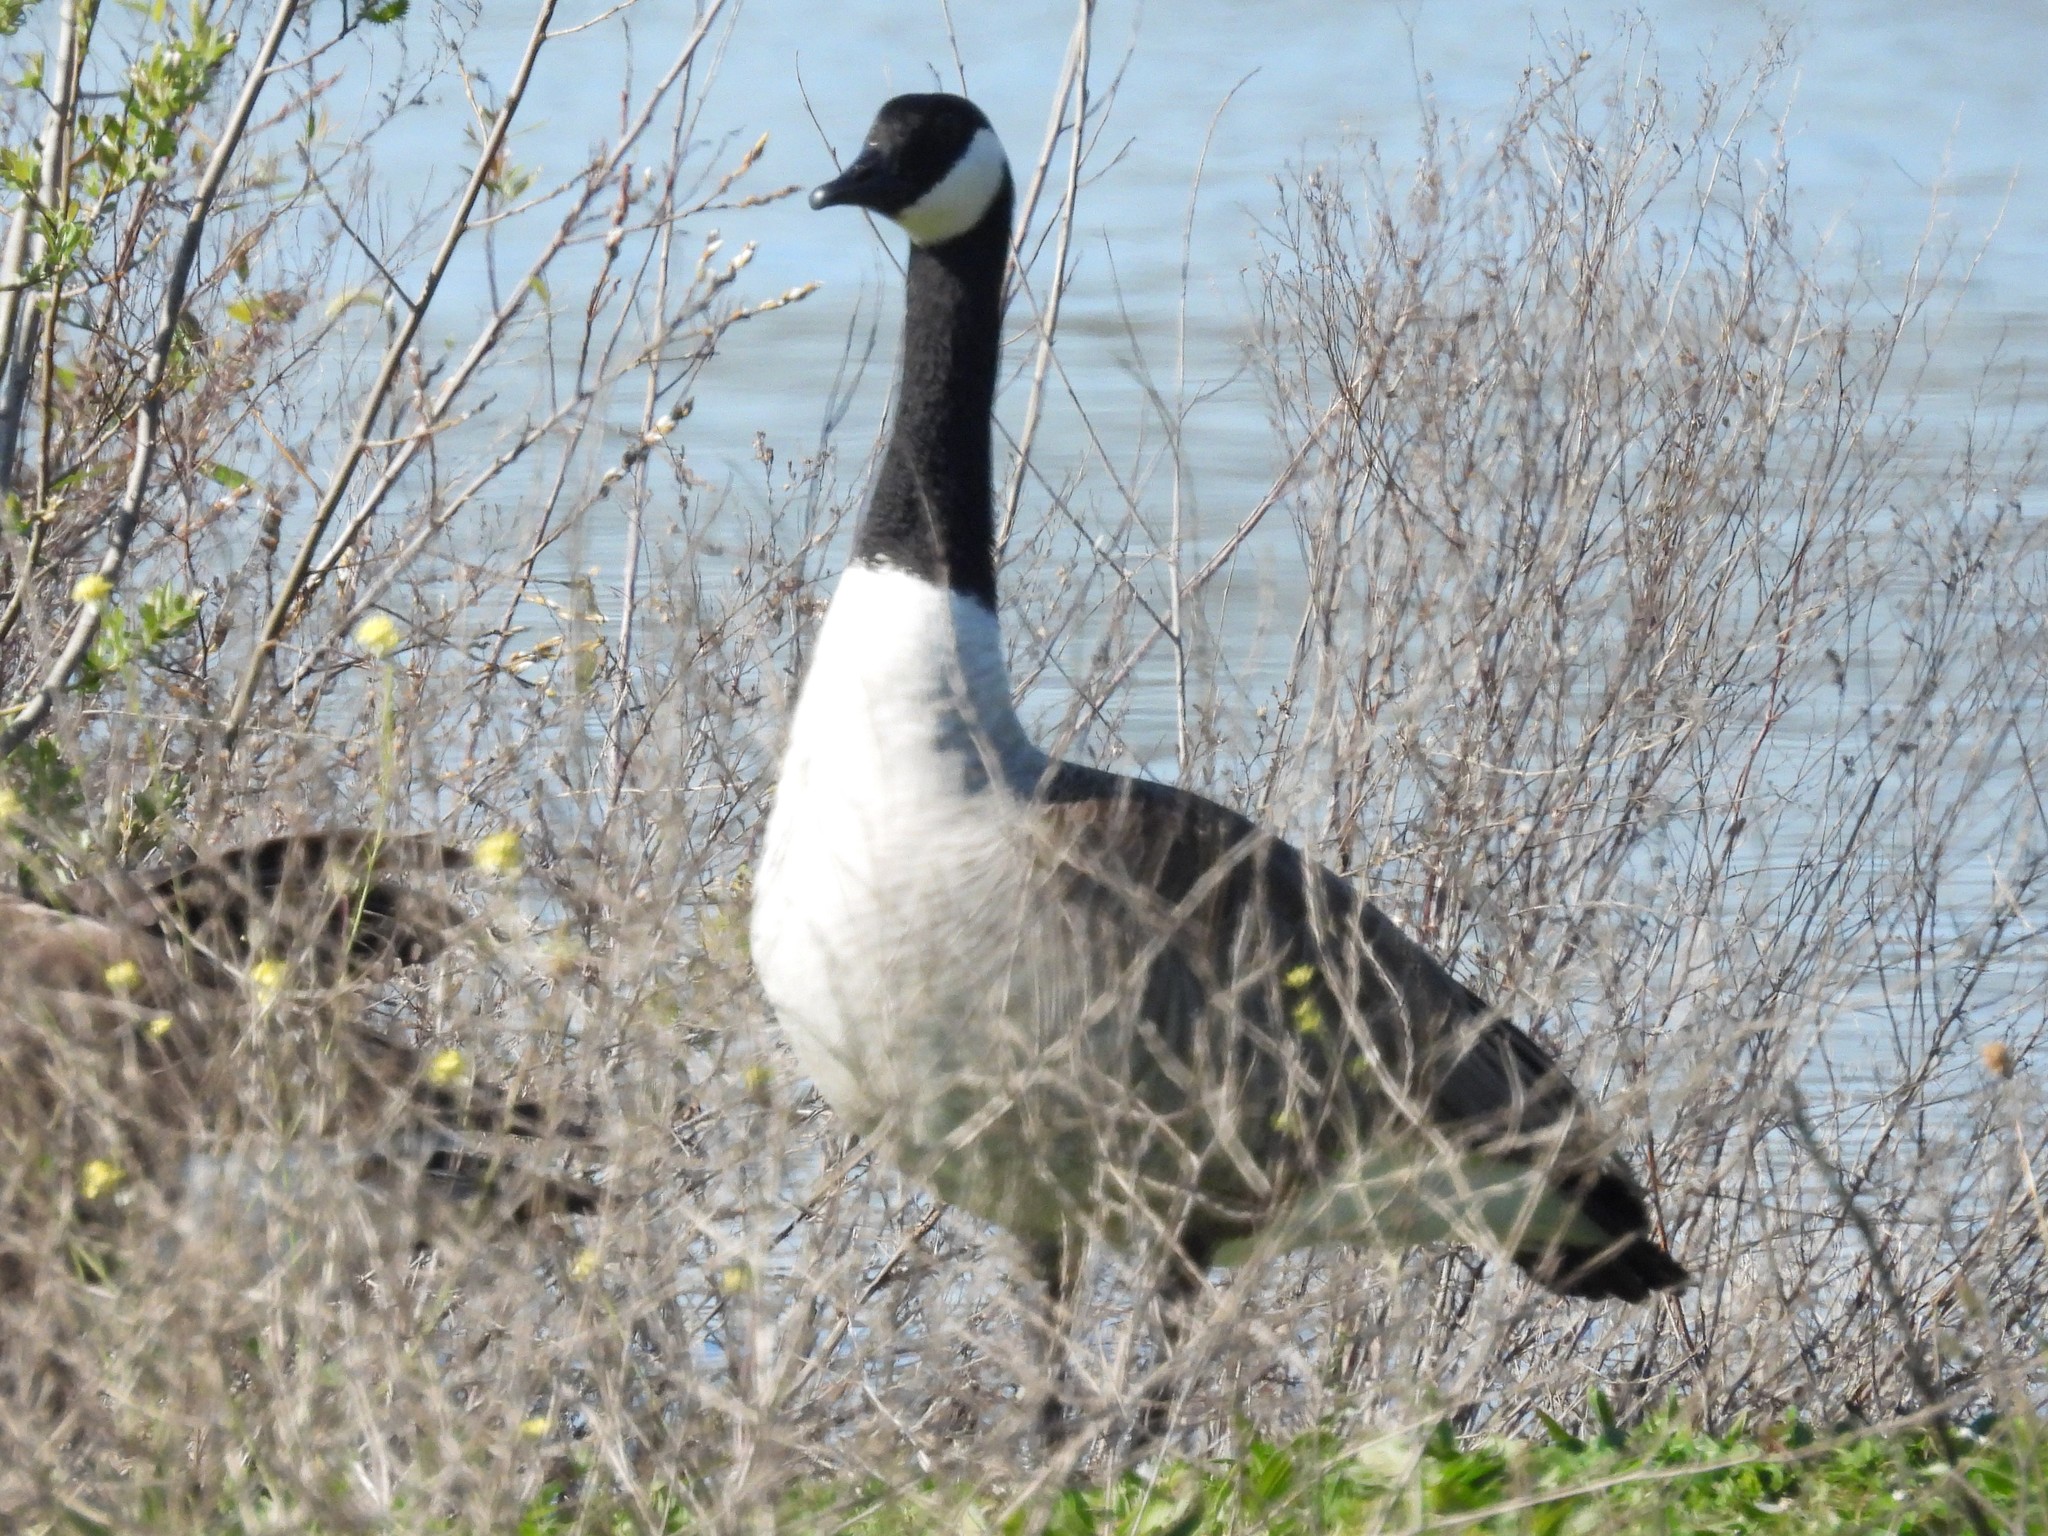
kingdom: Animalia
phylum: Chordata
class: Aves
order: Anseriformes
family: Anatidae
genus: Branta
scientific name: Branta canadensis
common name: Canada goose
